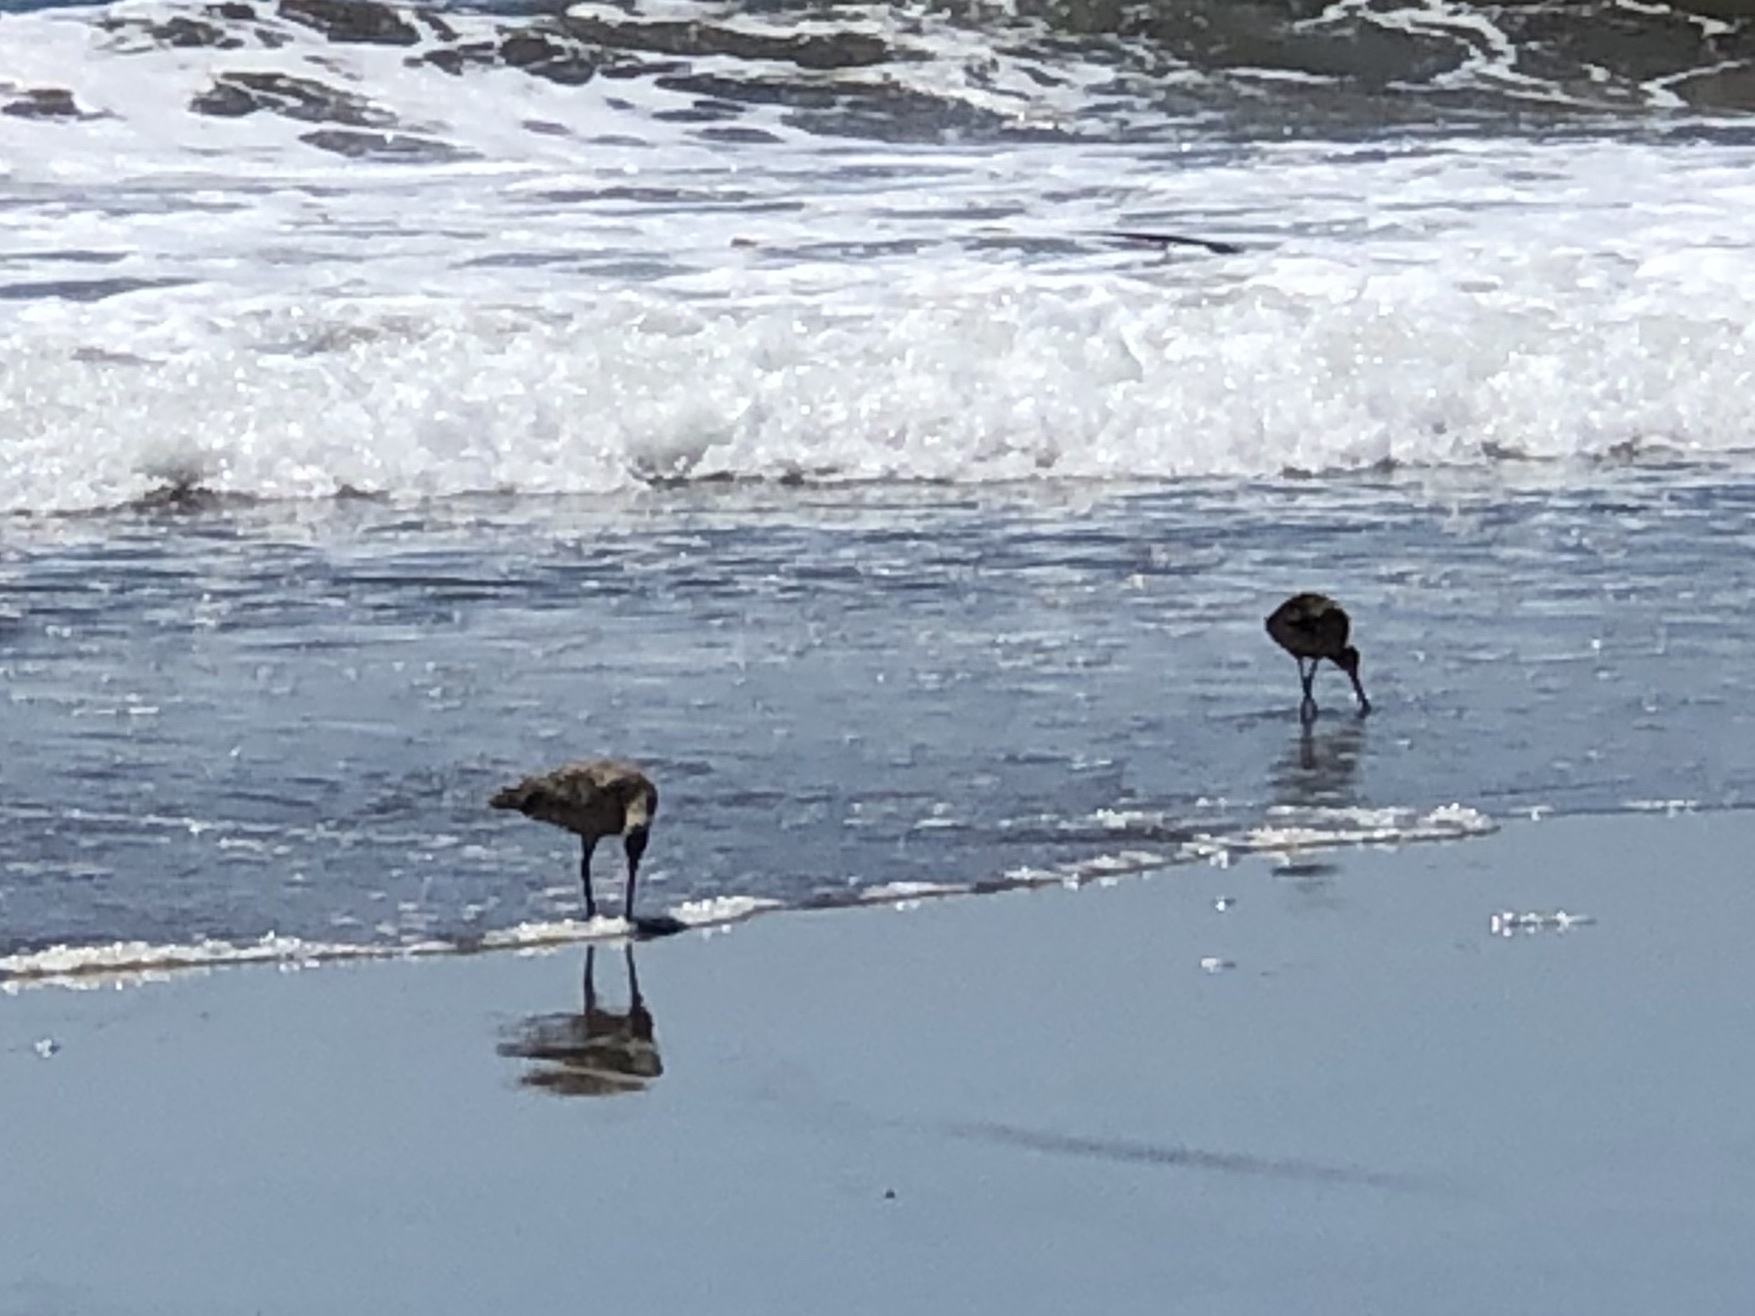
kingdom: Animalia
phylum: Chordata
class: Aves
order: Charadriiformes
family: Scolopacidae
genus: Limosa
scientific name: Limosa fedoa
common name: Marbled godwit
